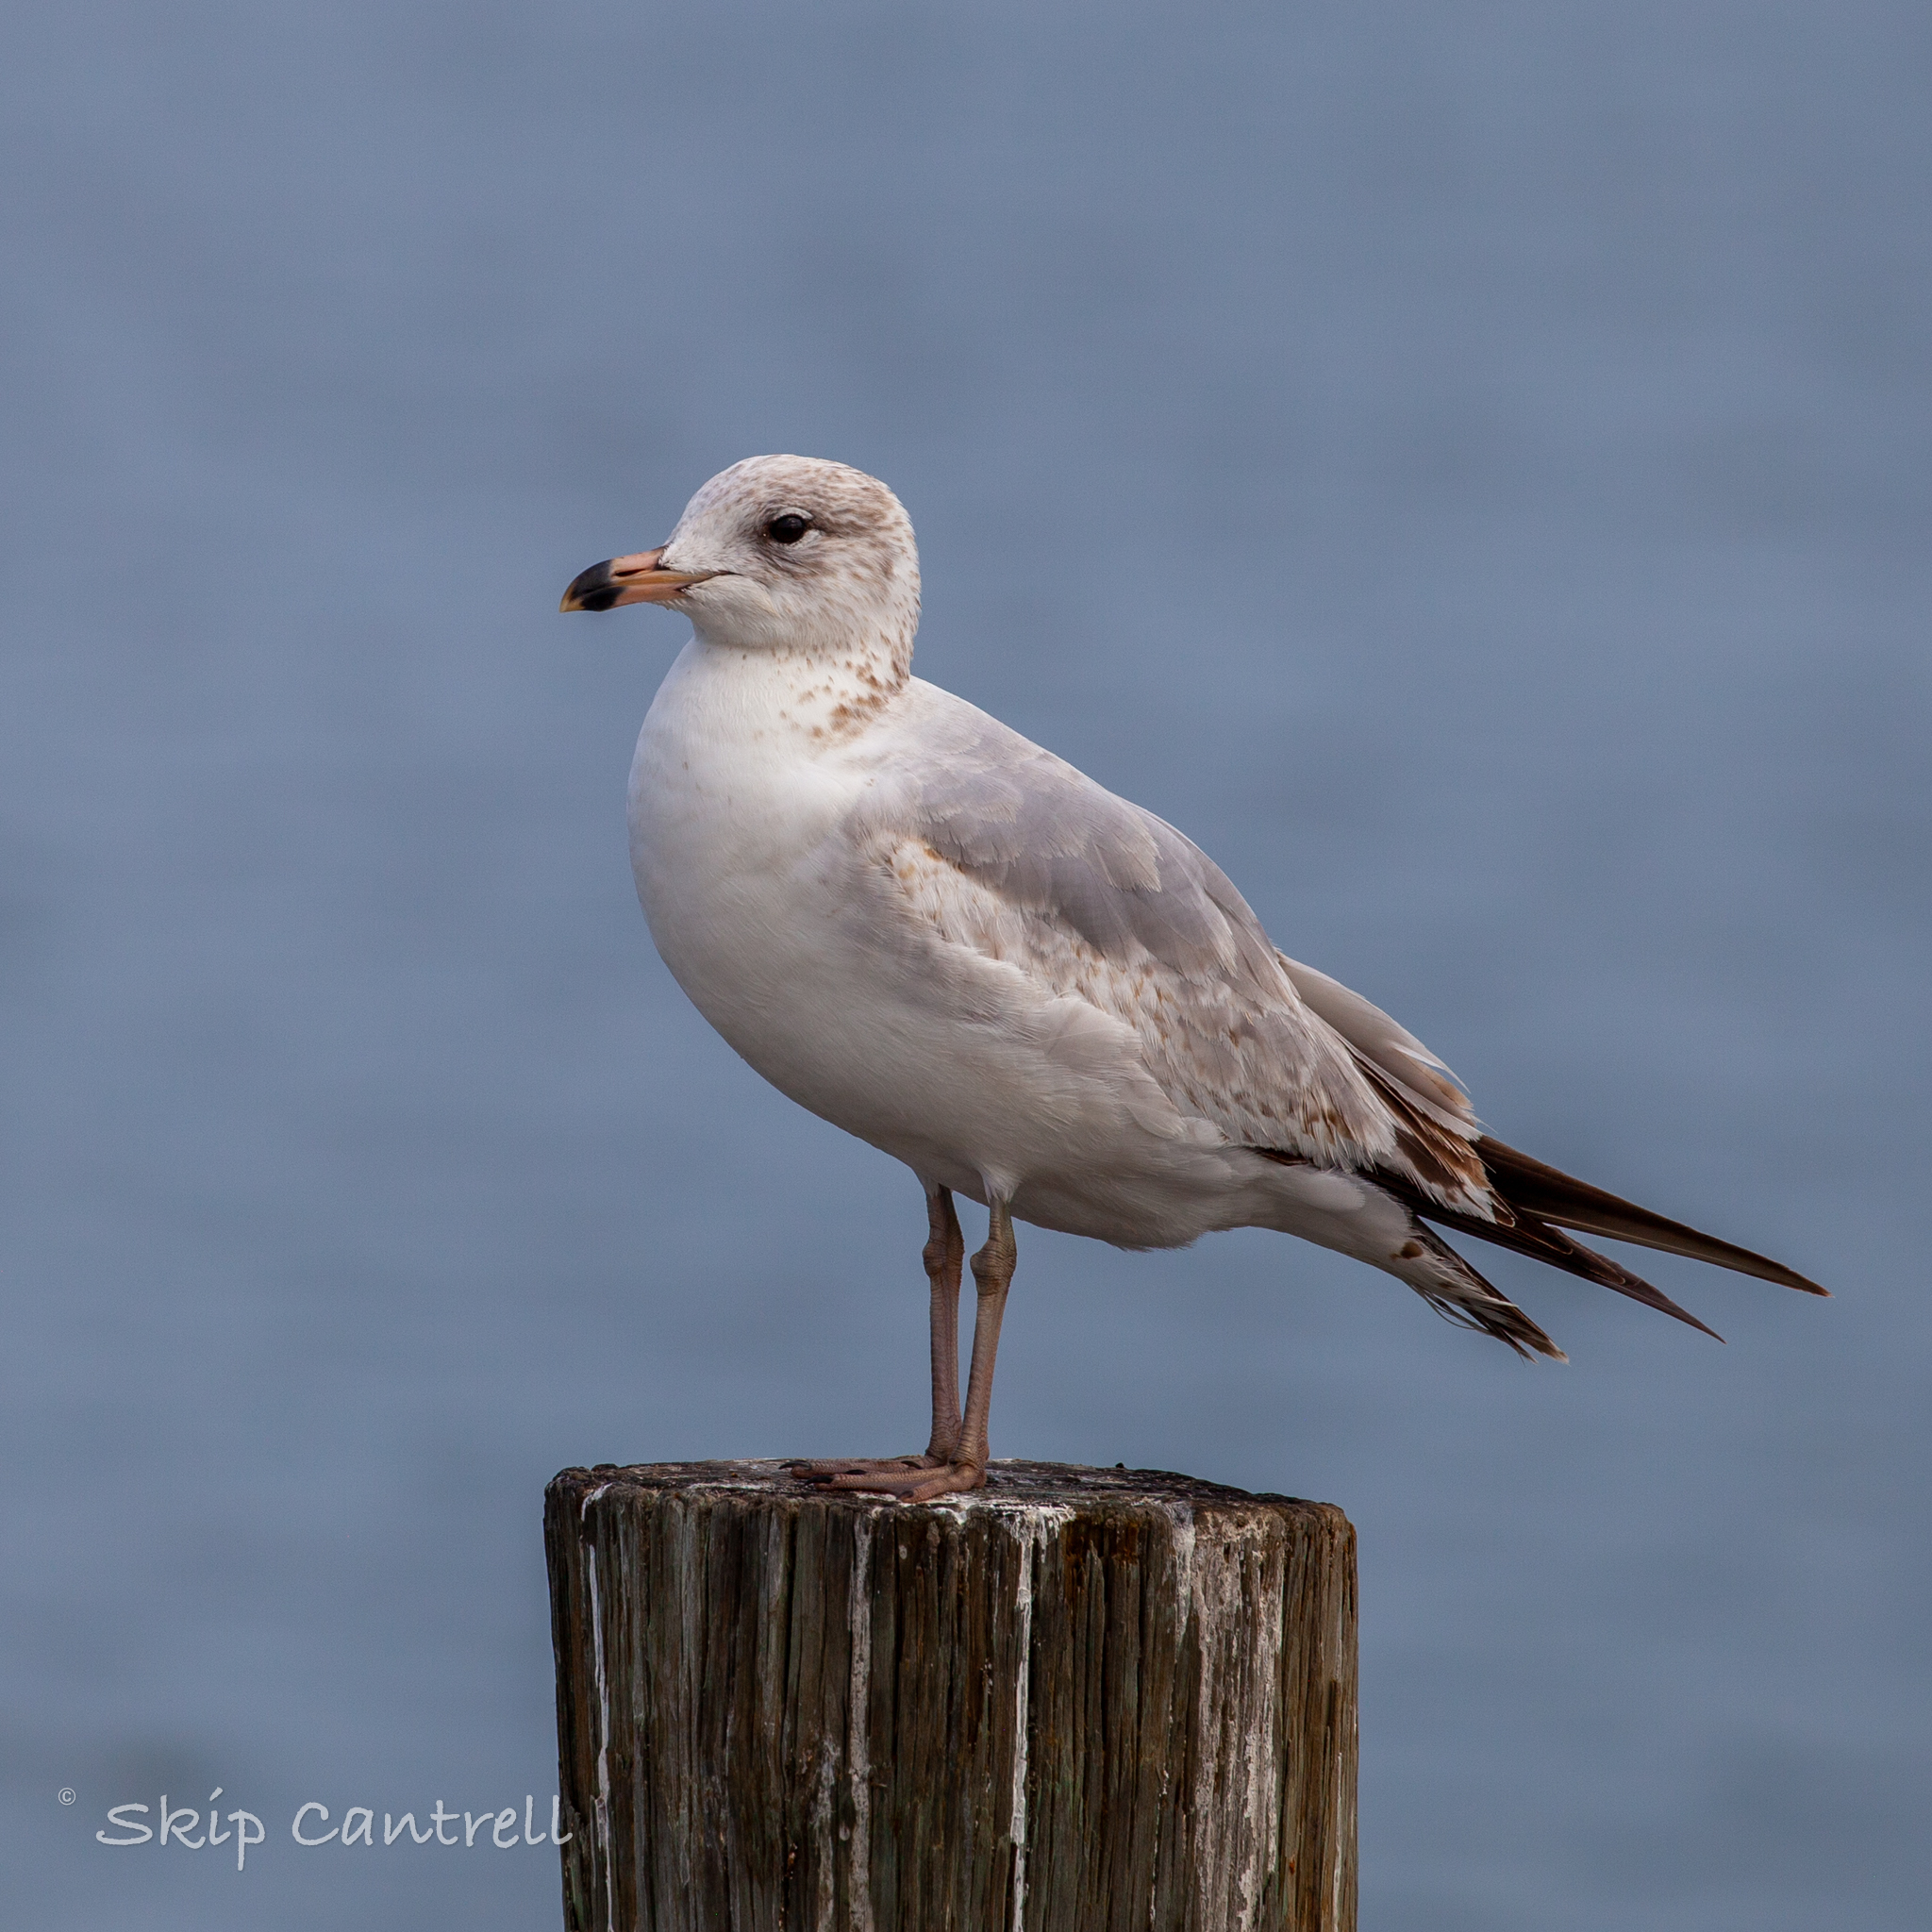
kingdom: Animalia
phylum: Chordata
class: Aves
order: Charadriiformes
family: Laridae
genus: Larus
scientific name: Larus delawarensis
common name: Ring-billed gull
